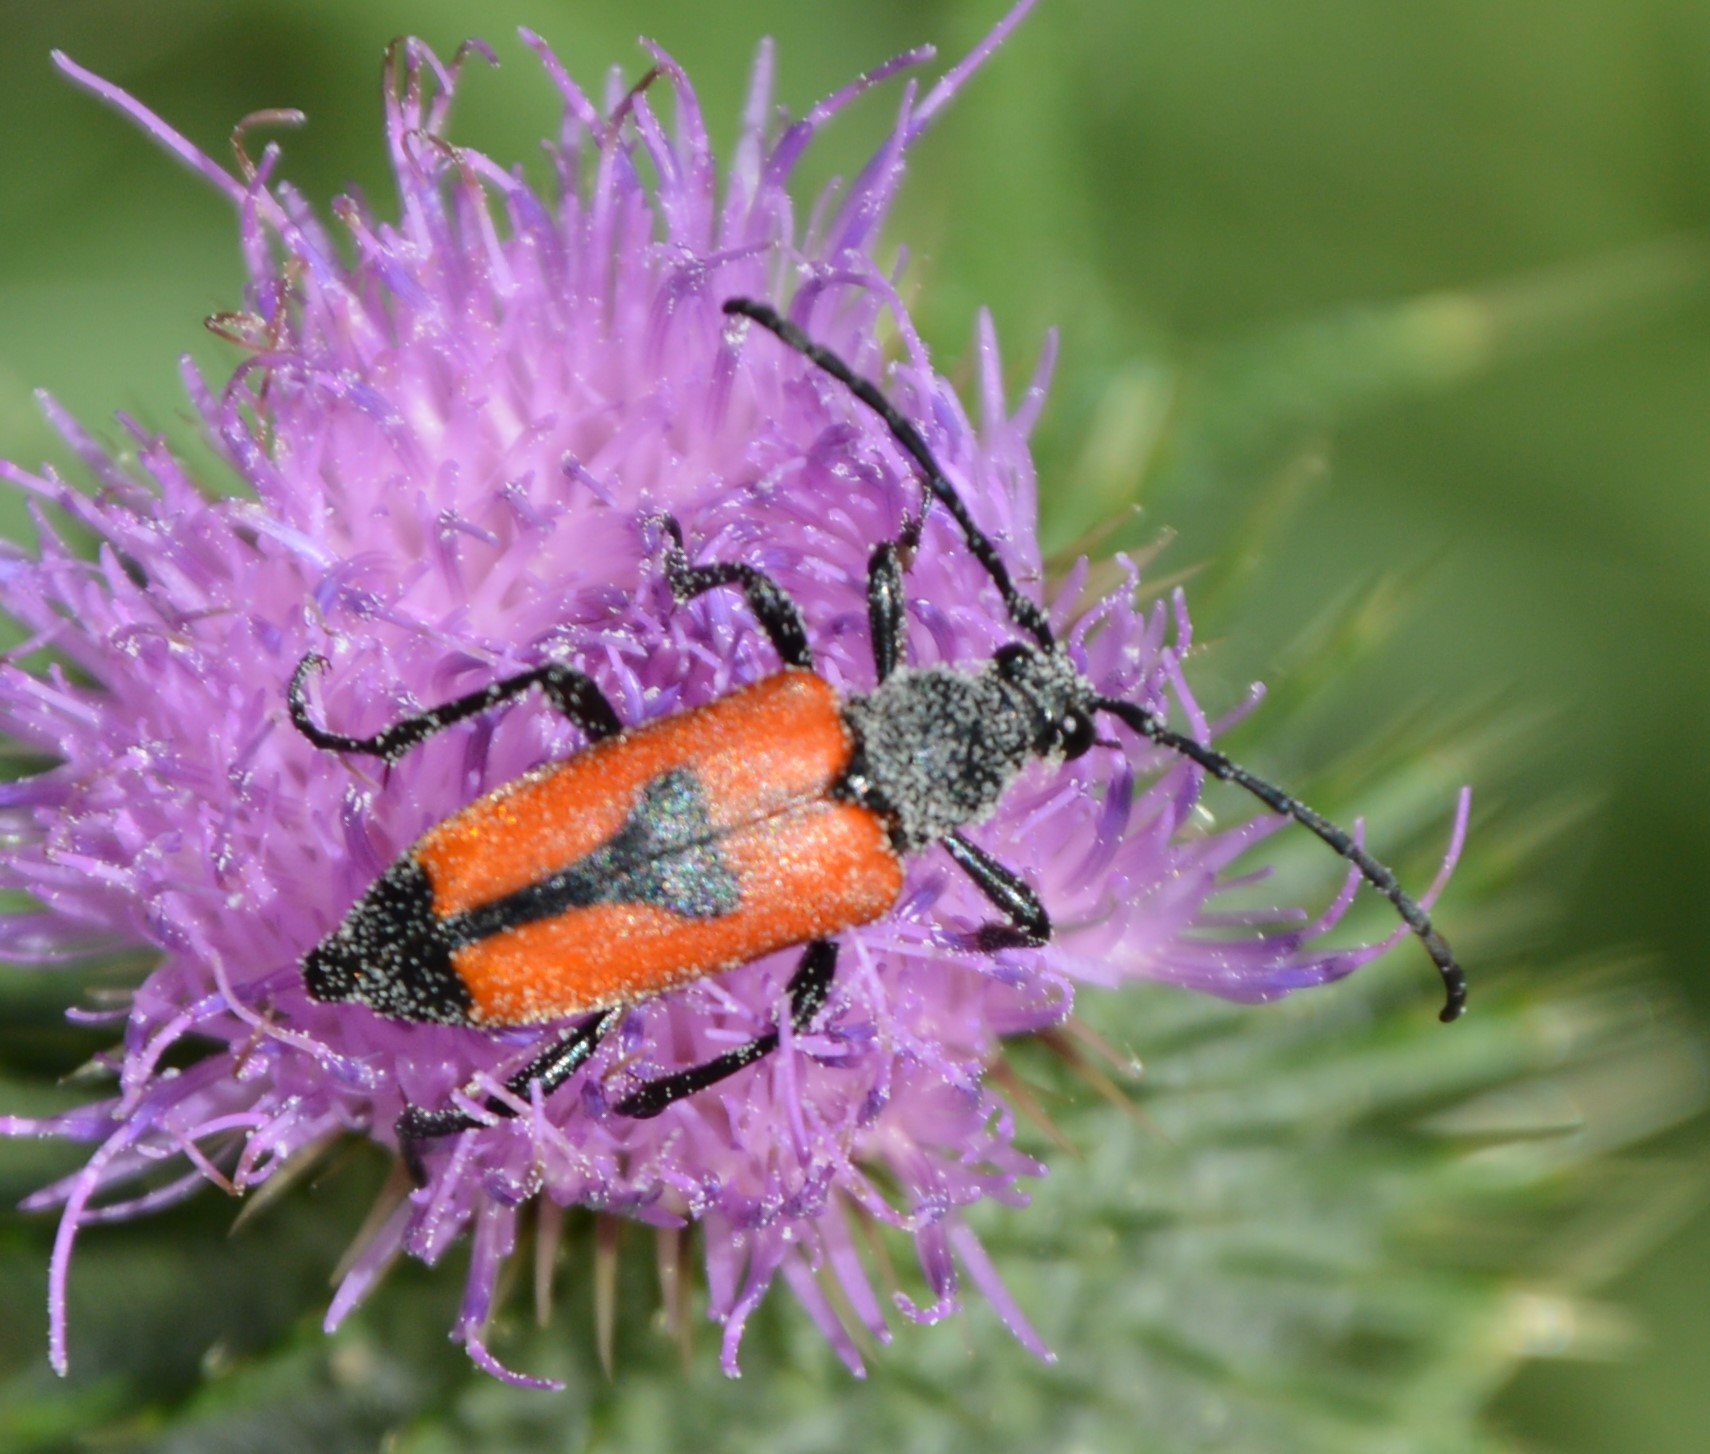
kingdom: Animalia
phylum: Arthropoda
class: Insecta
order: Coleoptera
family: Cerambycidae
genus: Stictoleptura
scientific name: Stictoleptura cordigera
